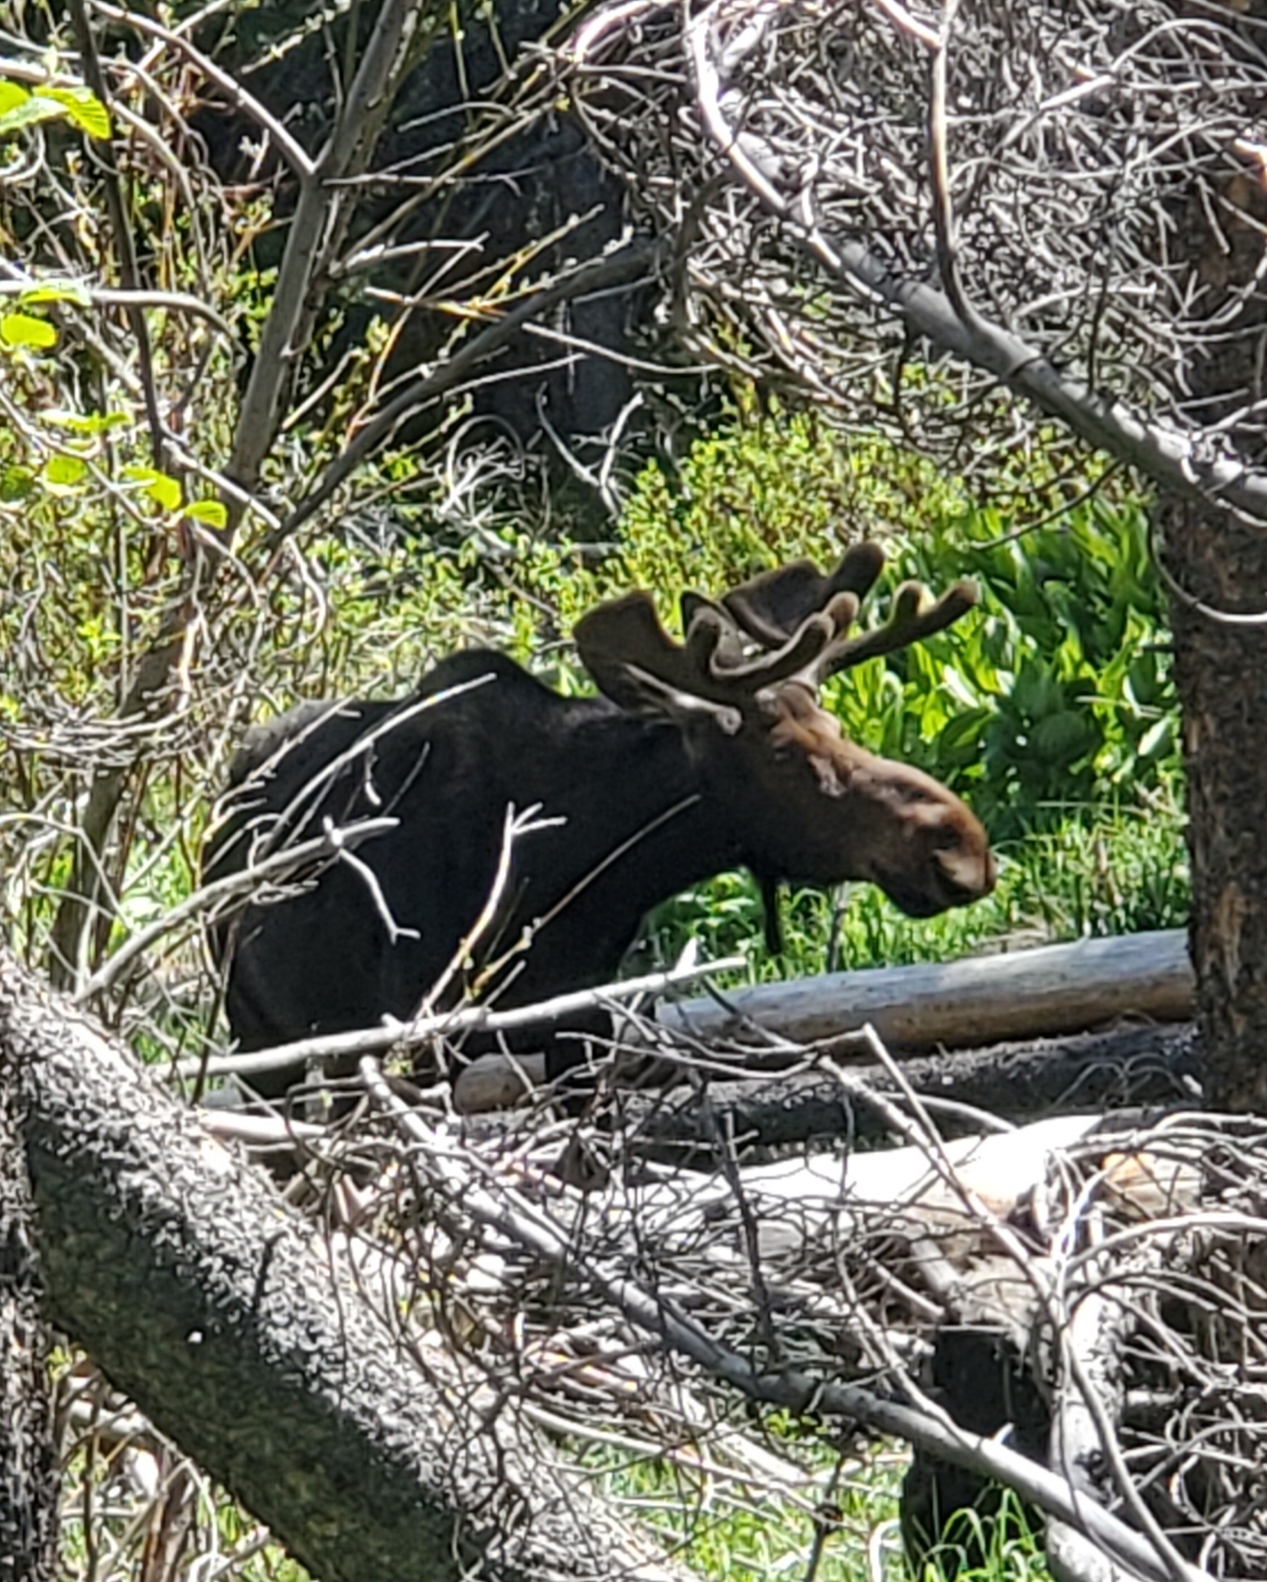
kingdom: Animalia
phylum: Chordata
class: Mammalia
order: Artiodactyla
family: Cervidae
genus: Alces
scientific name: Alces alces
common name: Moose
